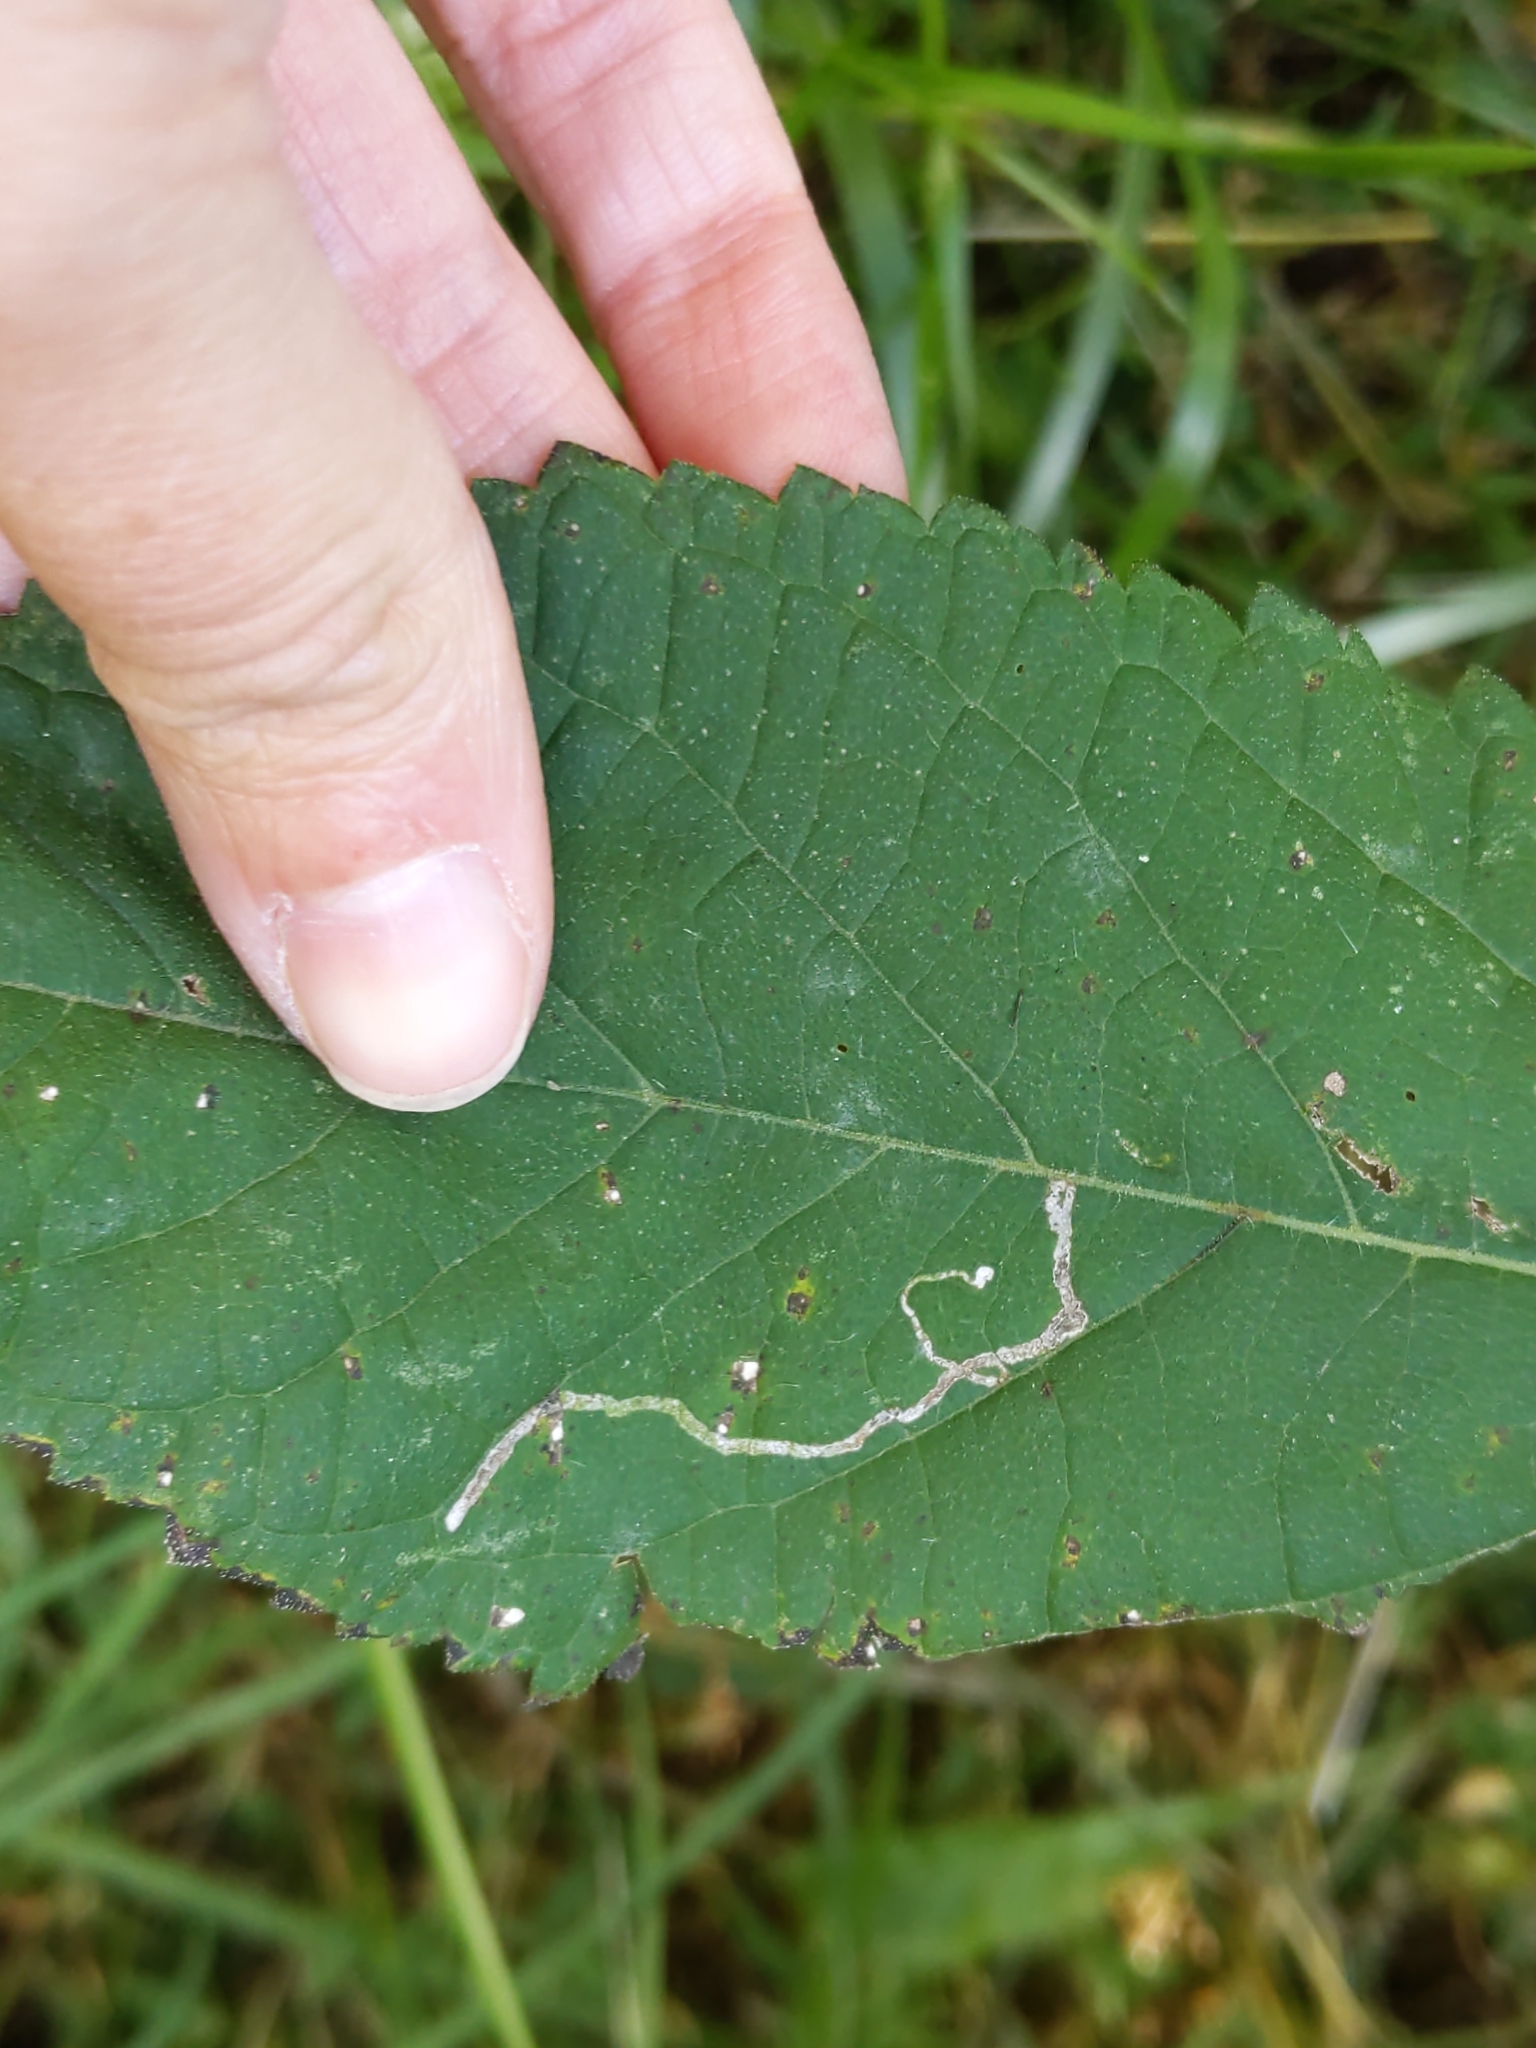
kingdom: Animalia
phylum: Arthropoda
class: Insecta
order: Diptera
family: Agromyzidae
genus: Liriomyza
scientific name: Liriomyza
